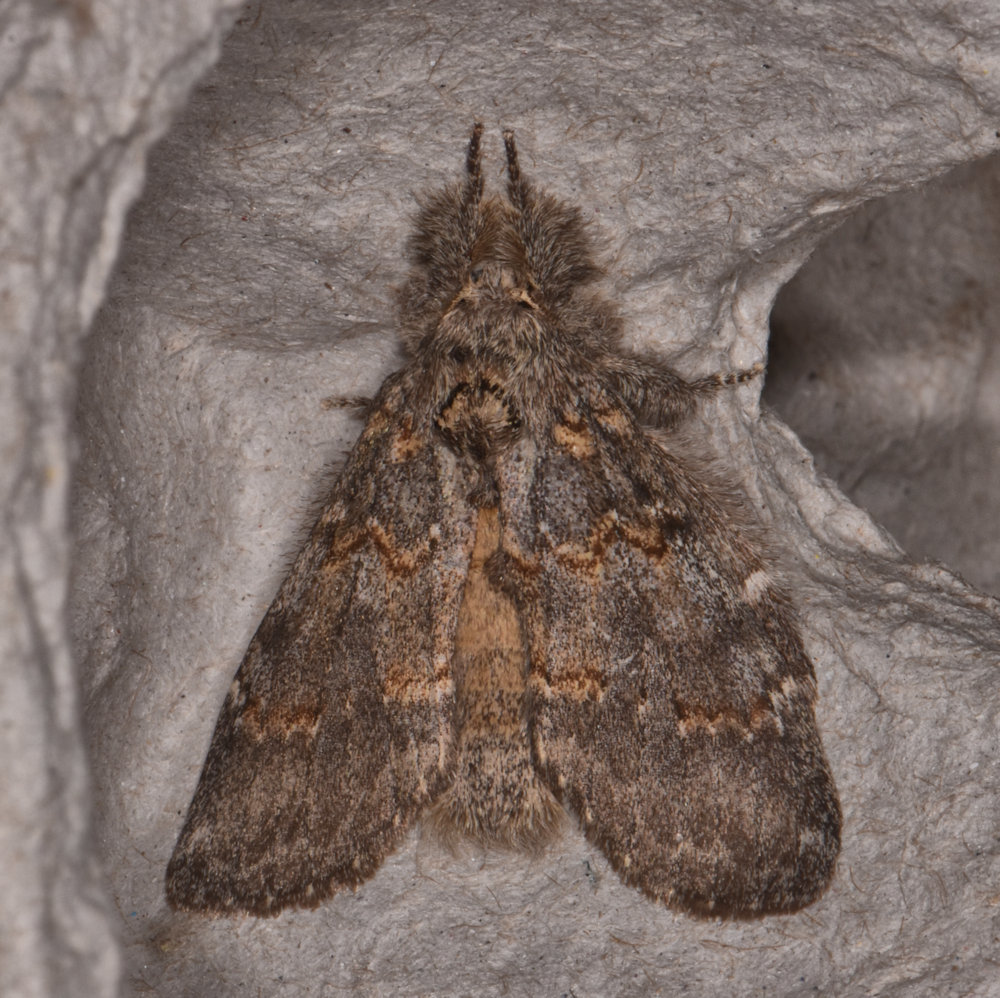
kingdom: Animalia
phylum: Arthropoda
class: Insecta
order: Lepidoptera
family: Notodontidae
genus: Peridea
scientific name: Peridea angulosa
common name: Angulose prominent
